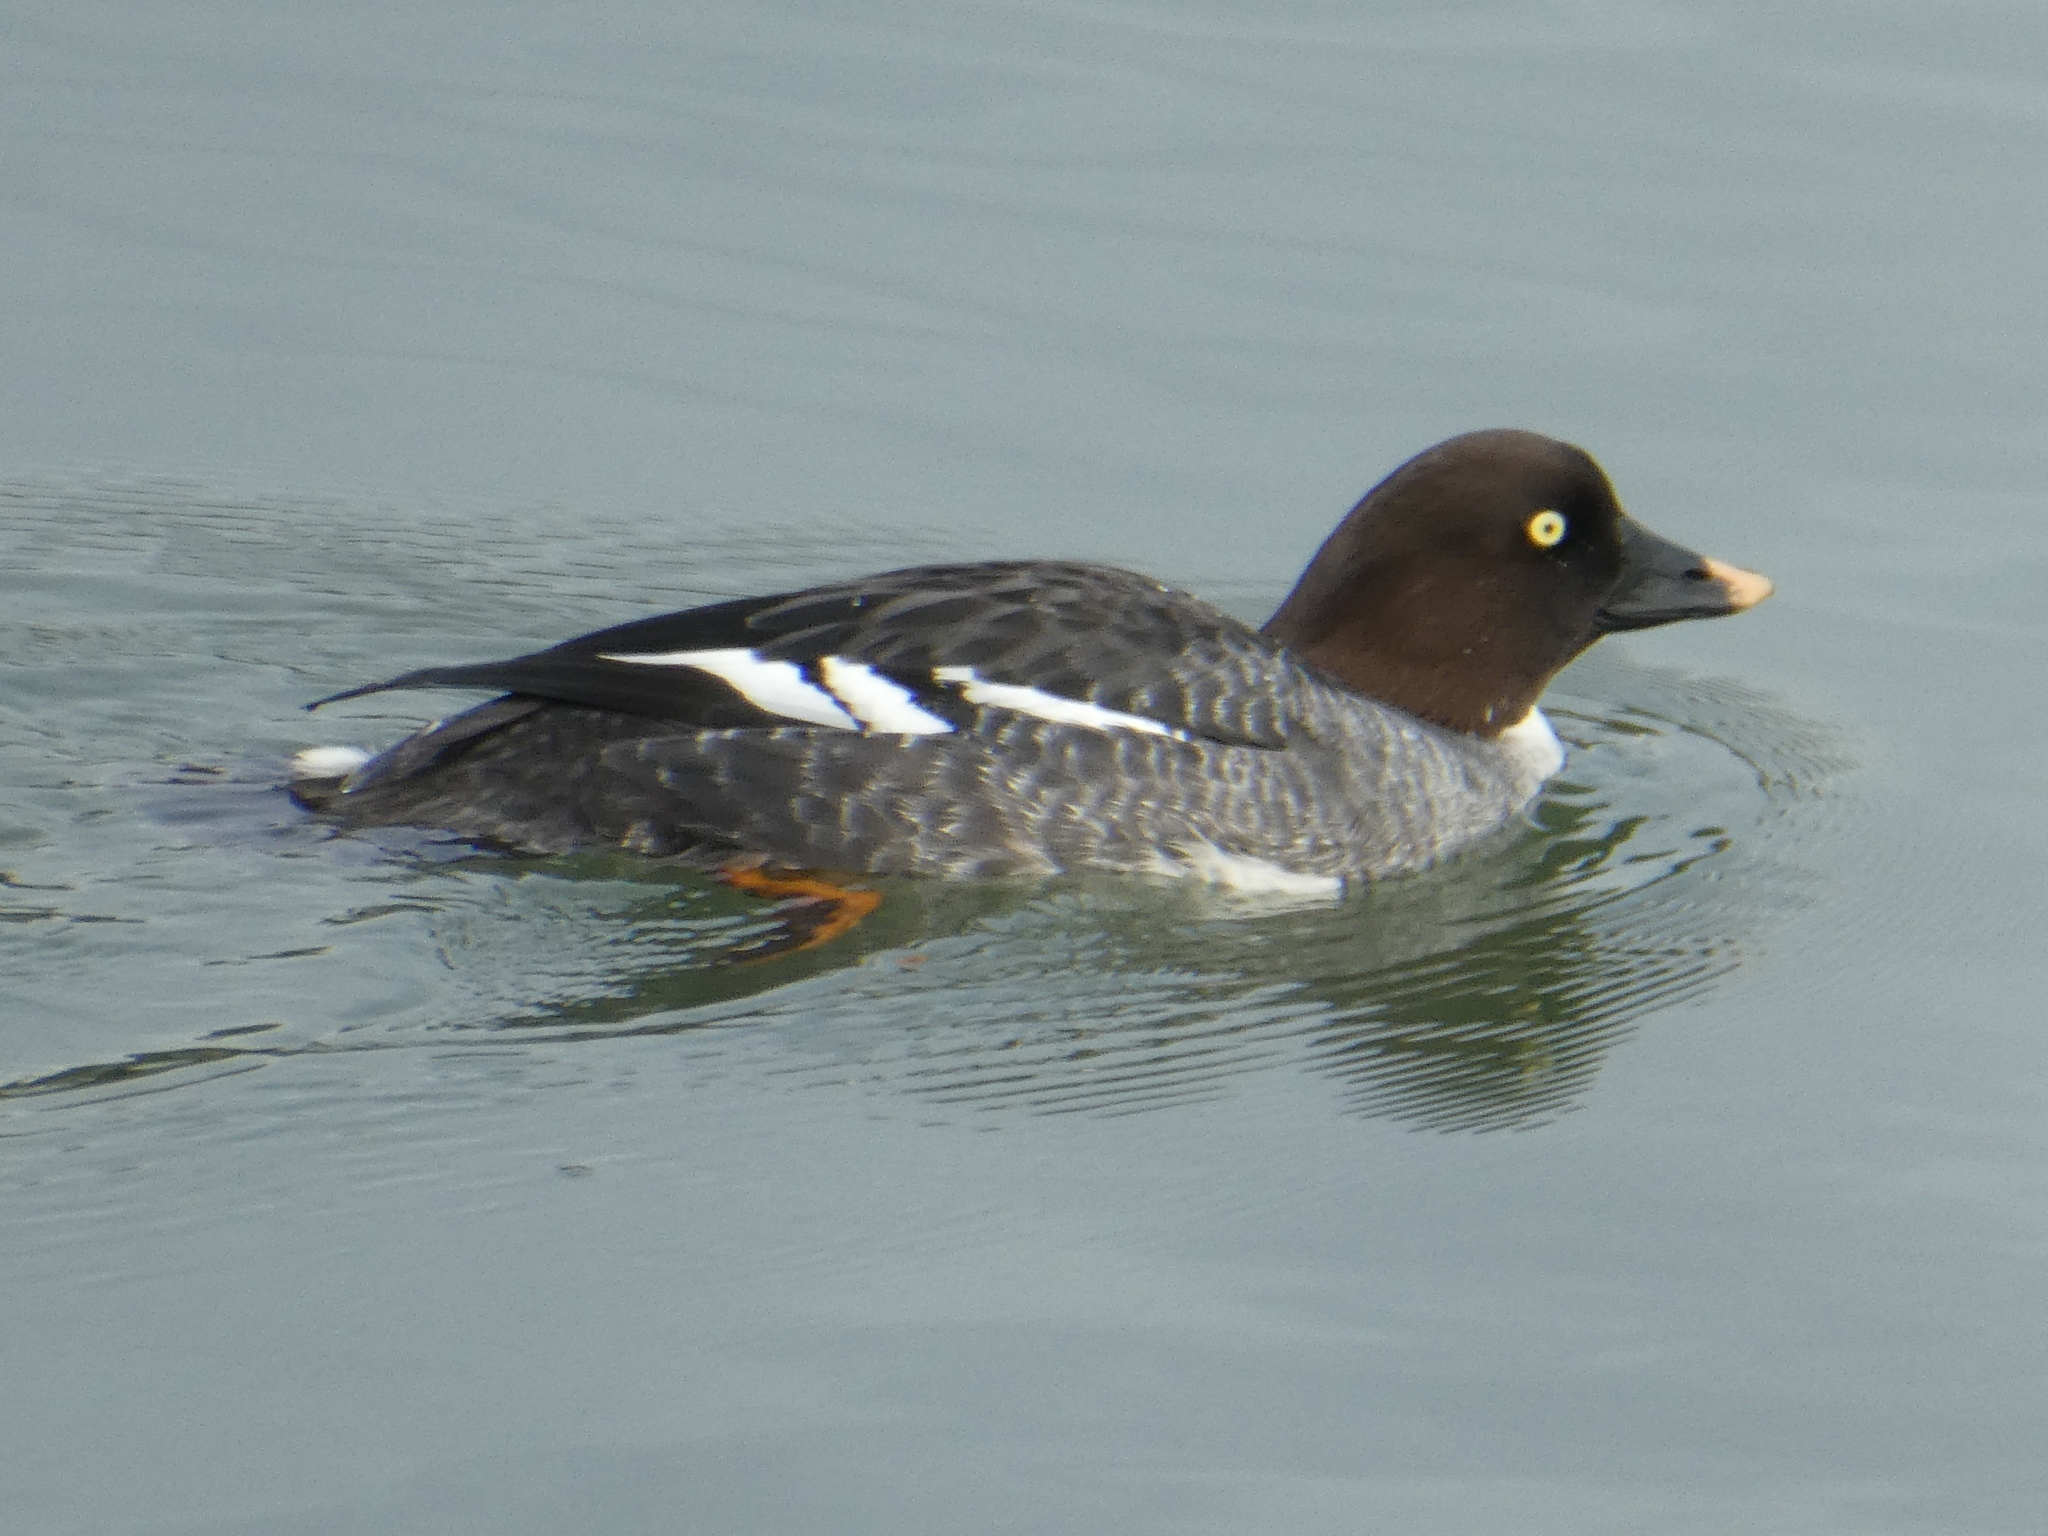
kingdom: Animalia
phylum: Chordata
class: Aves
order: Anseriformes
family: Anatidae
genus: Bucephala
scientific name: Bucephala clangula
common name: Common goldeneye
